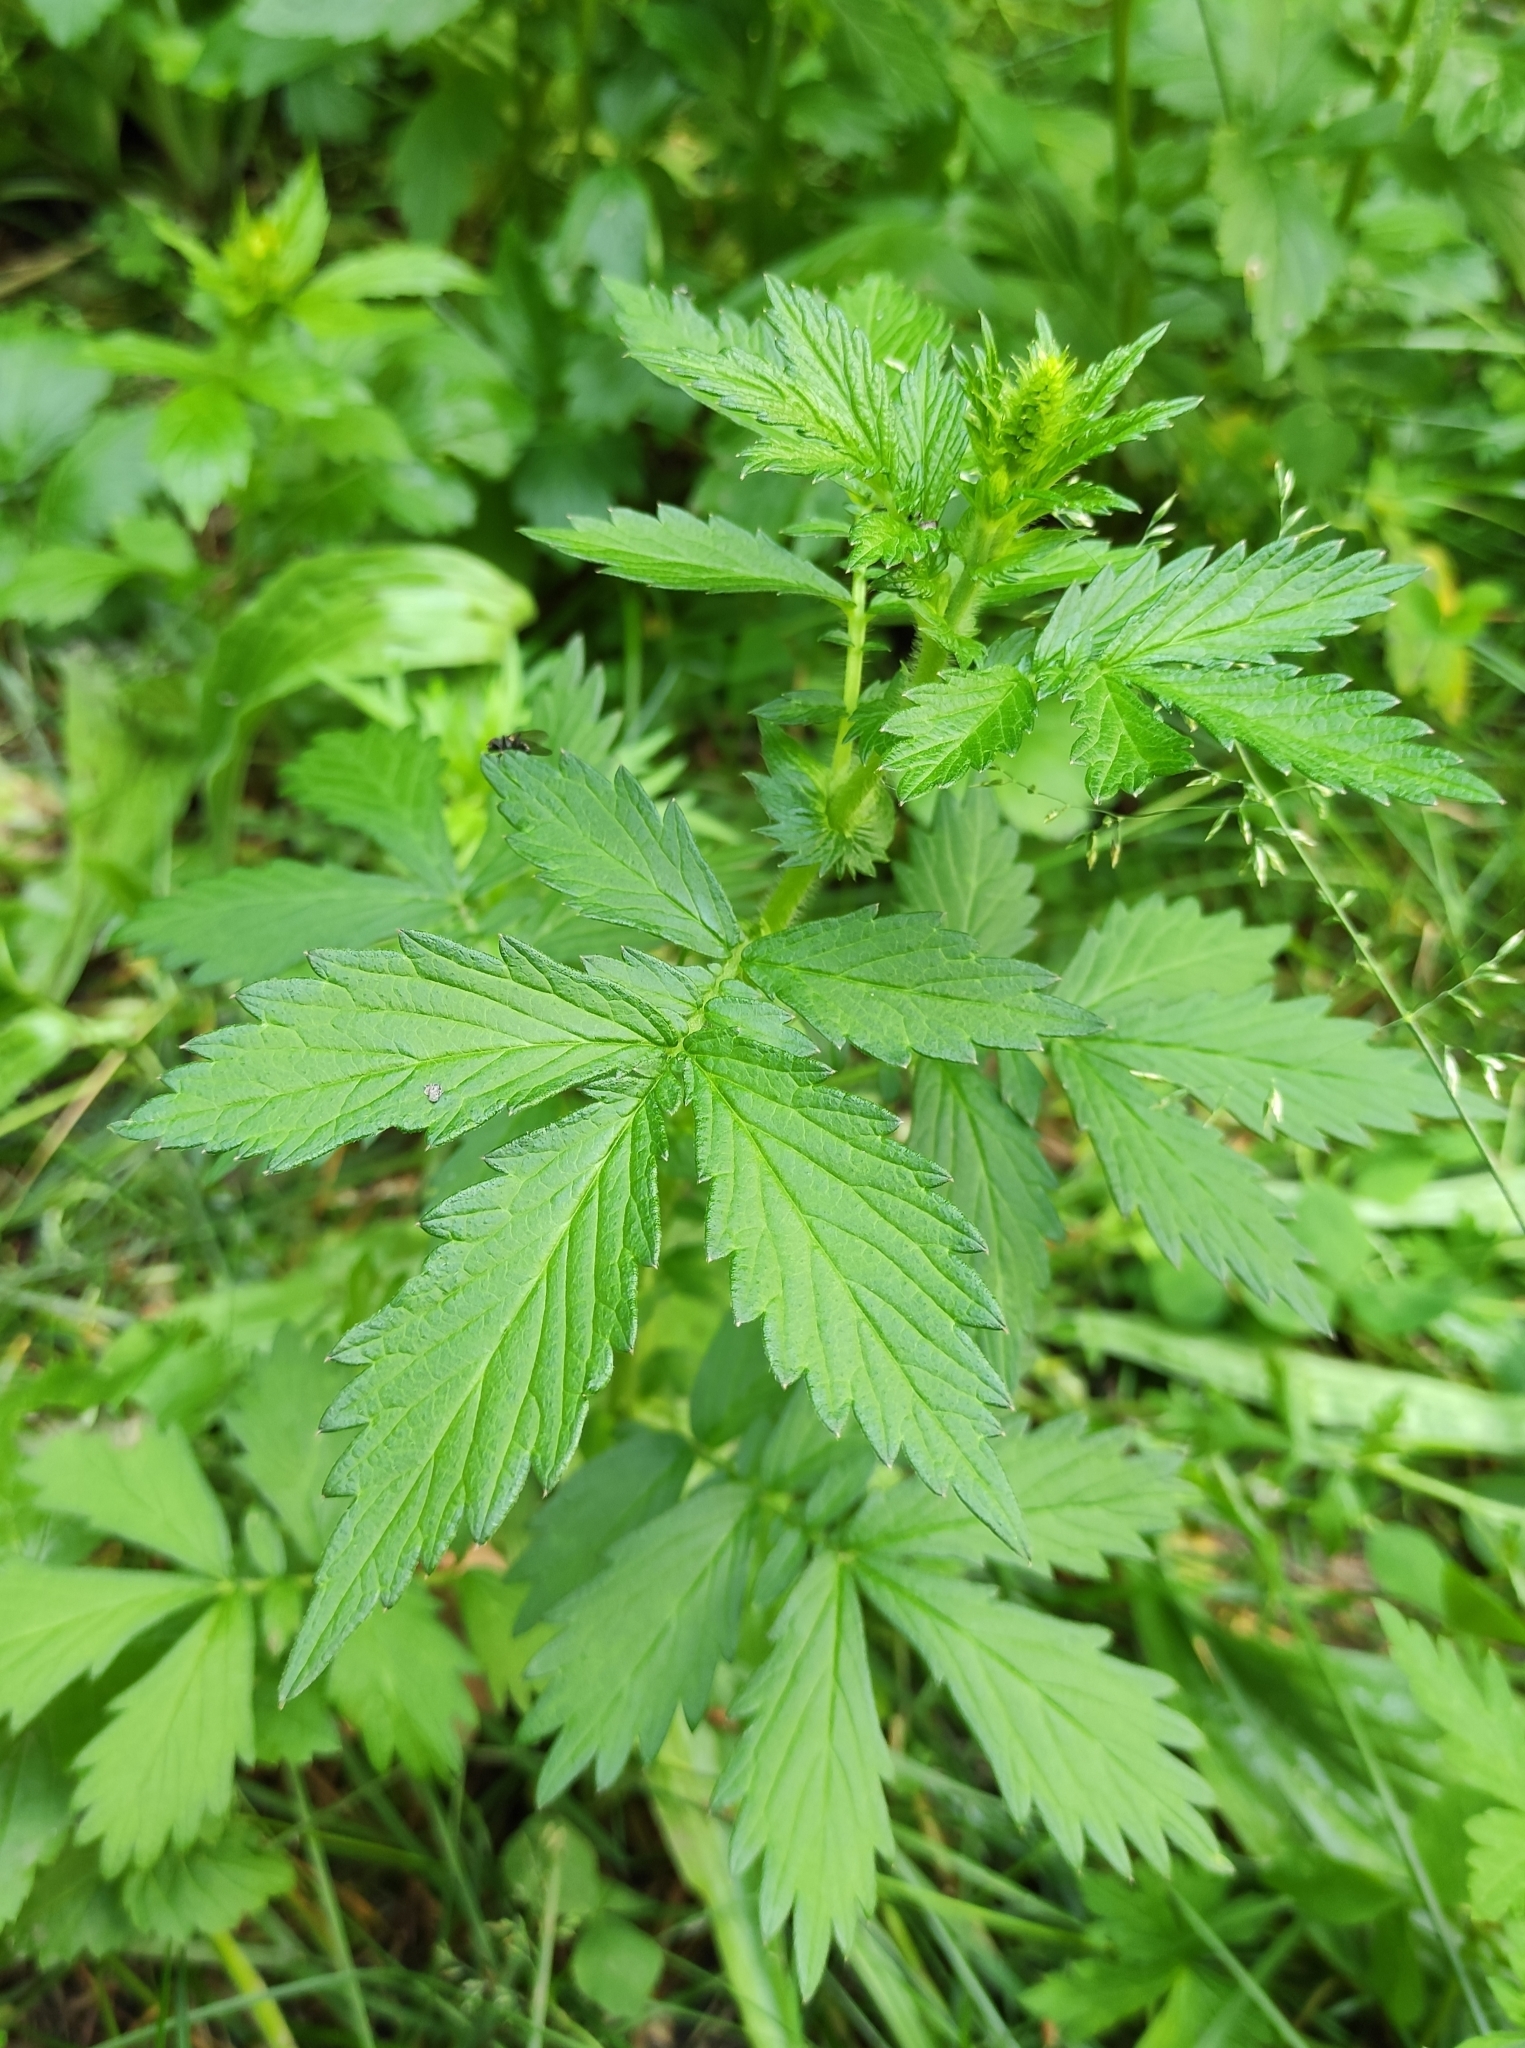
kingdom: Plantae
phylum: Tracheophyta
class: Magnoliopsida
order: Rosales
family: Rosaceae
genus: Agrimonia
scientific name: Agrimonia pilosa
